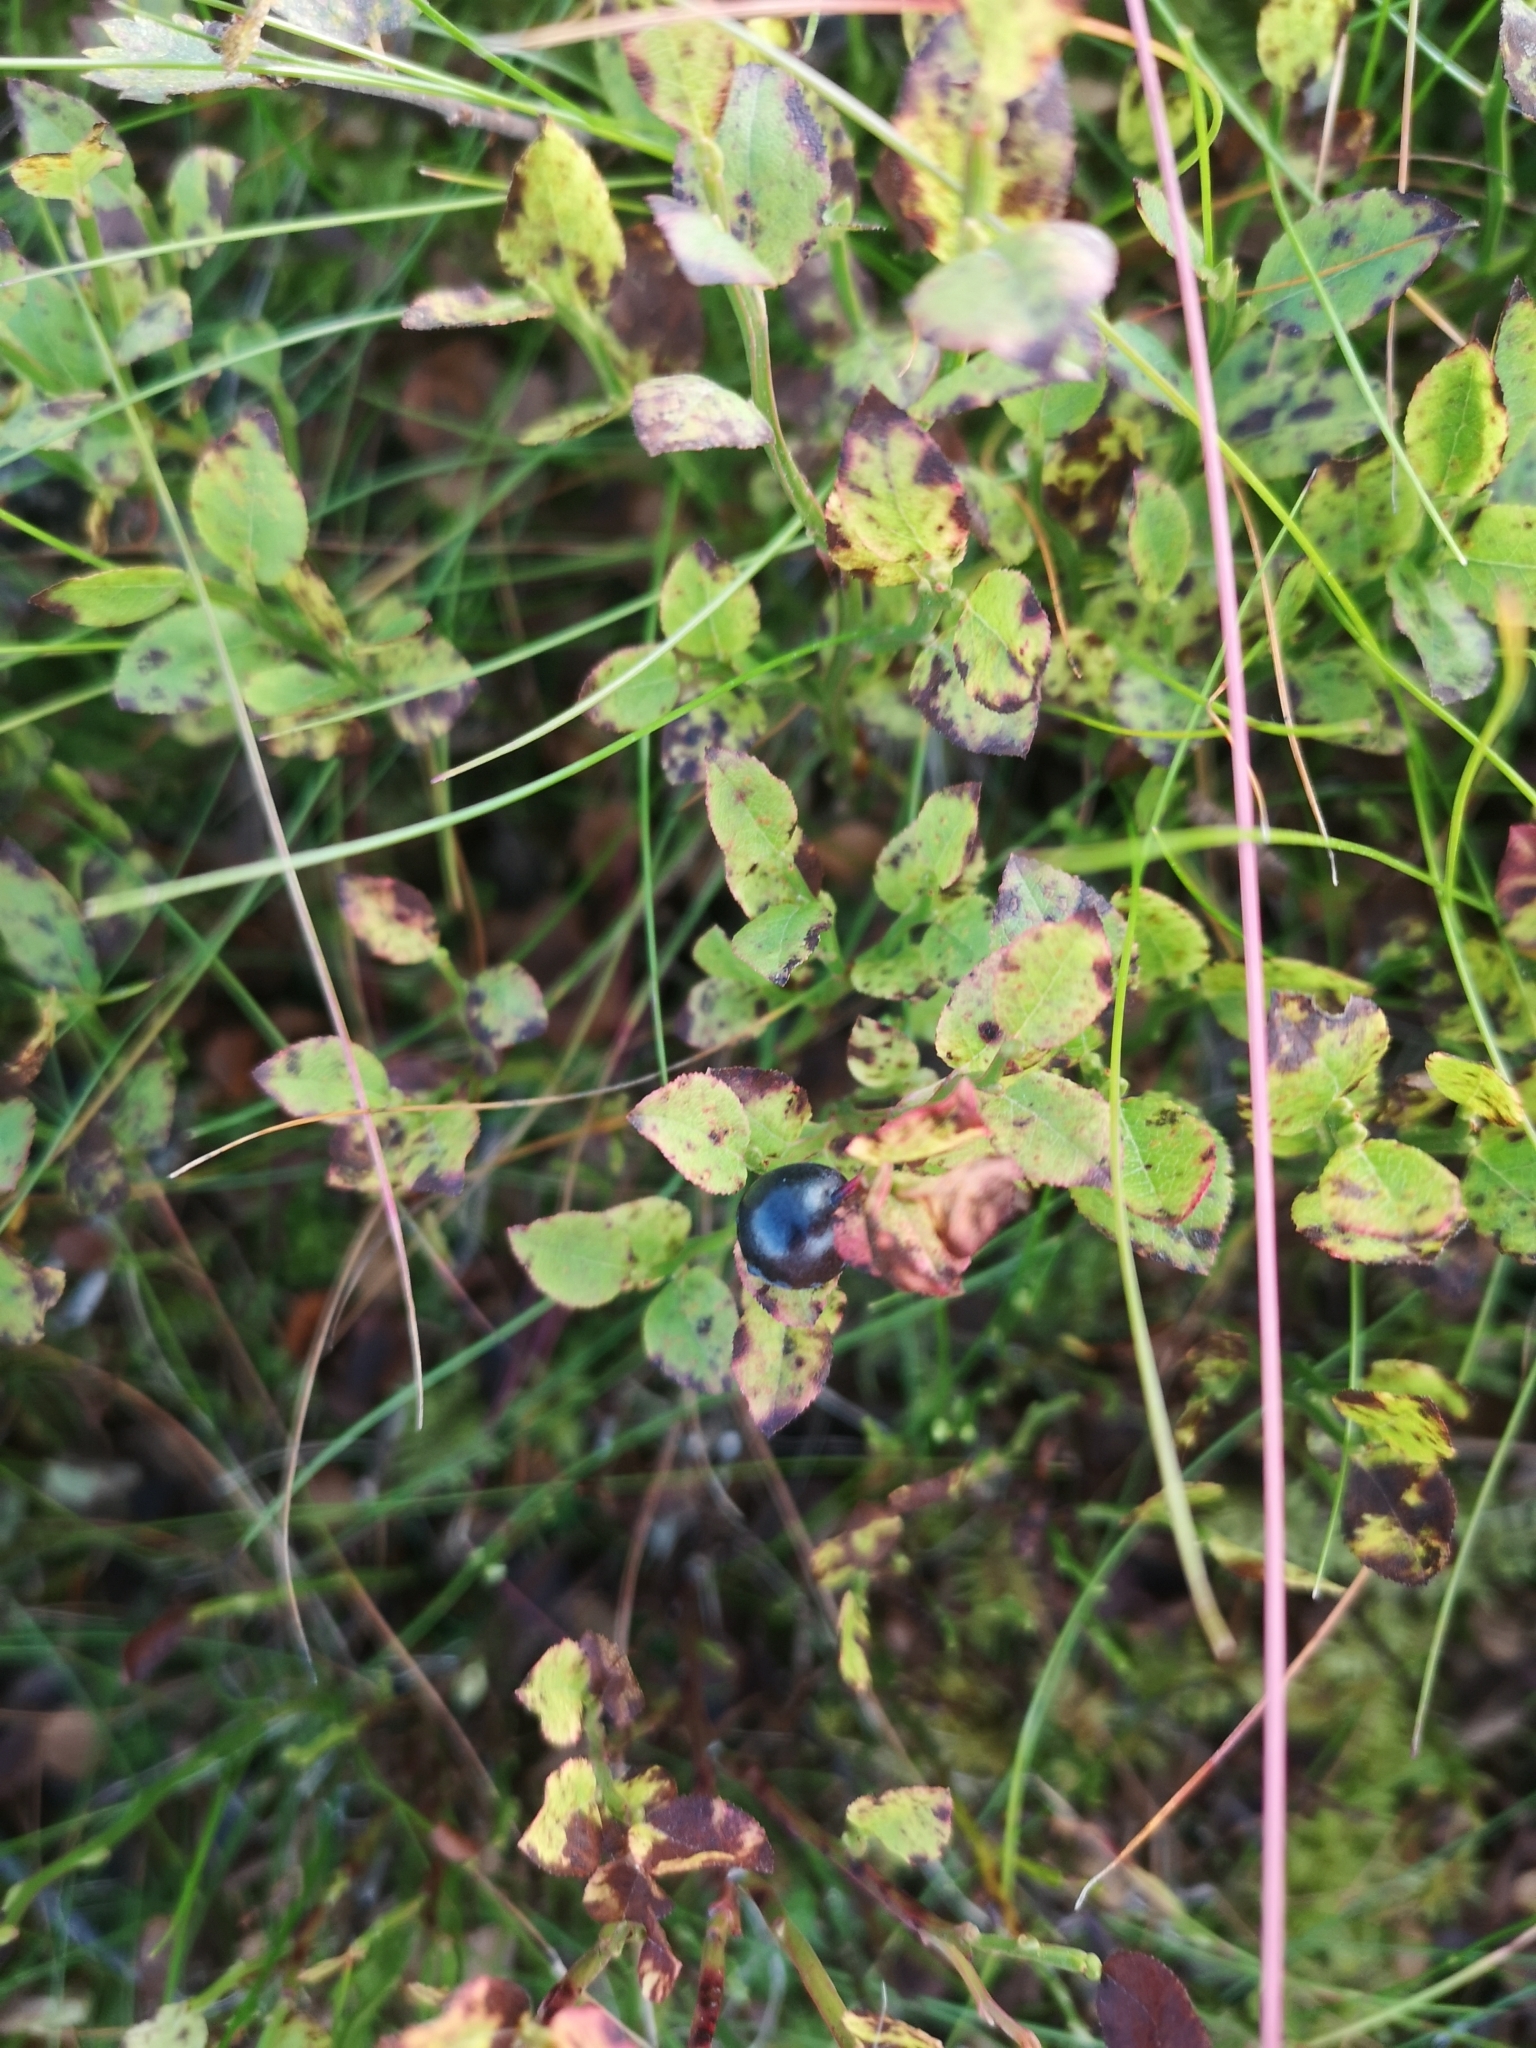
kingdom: Plantae
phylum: Tracheophyta
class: Magnoliopsida
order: Ericales
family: Ericaceae
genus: Vaccinium
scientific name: Vaccinium myrtillus
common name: Bilberry
